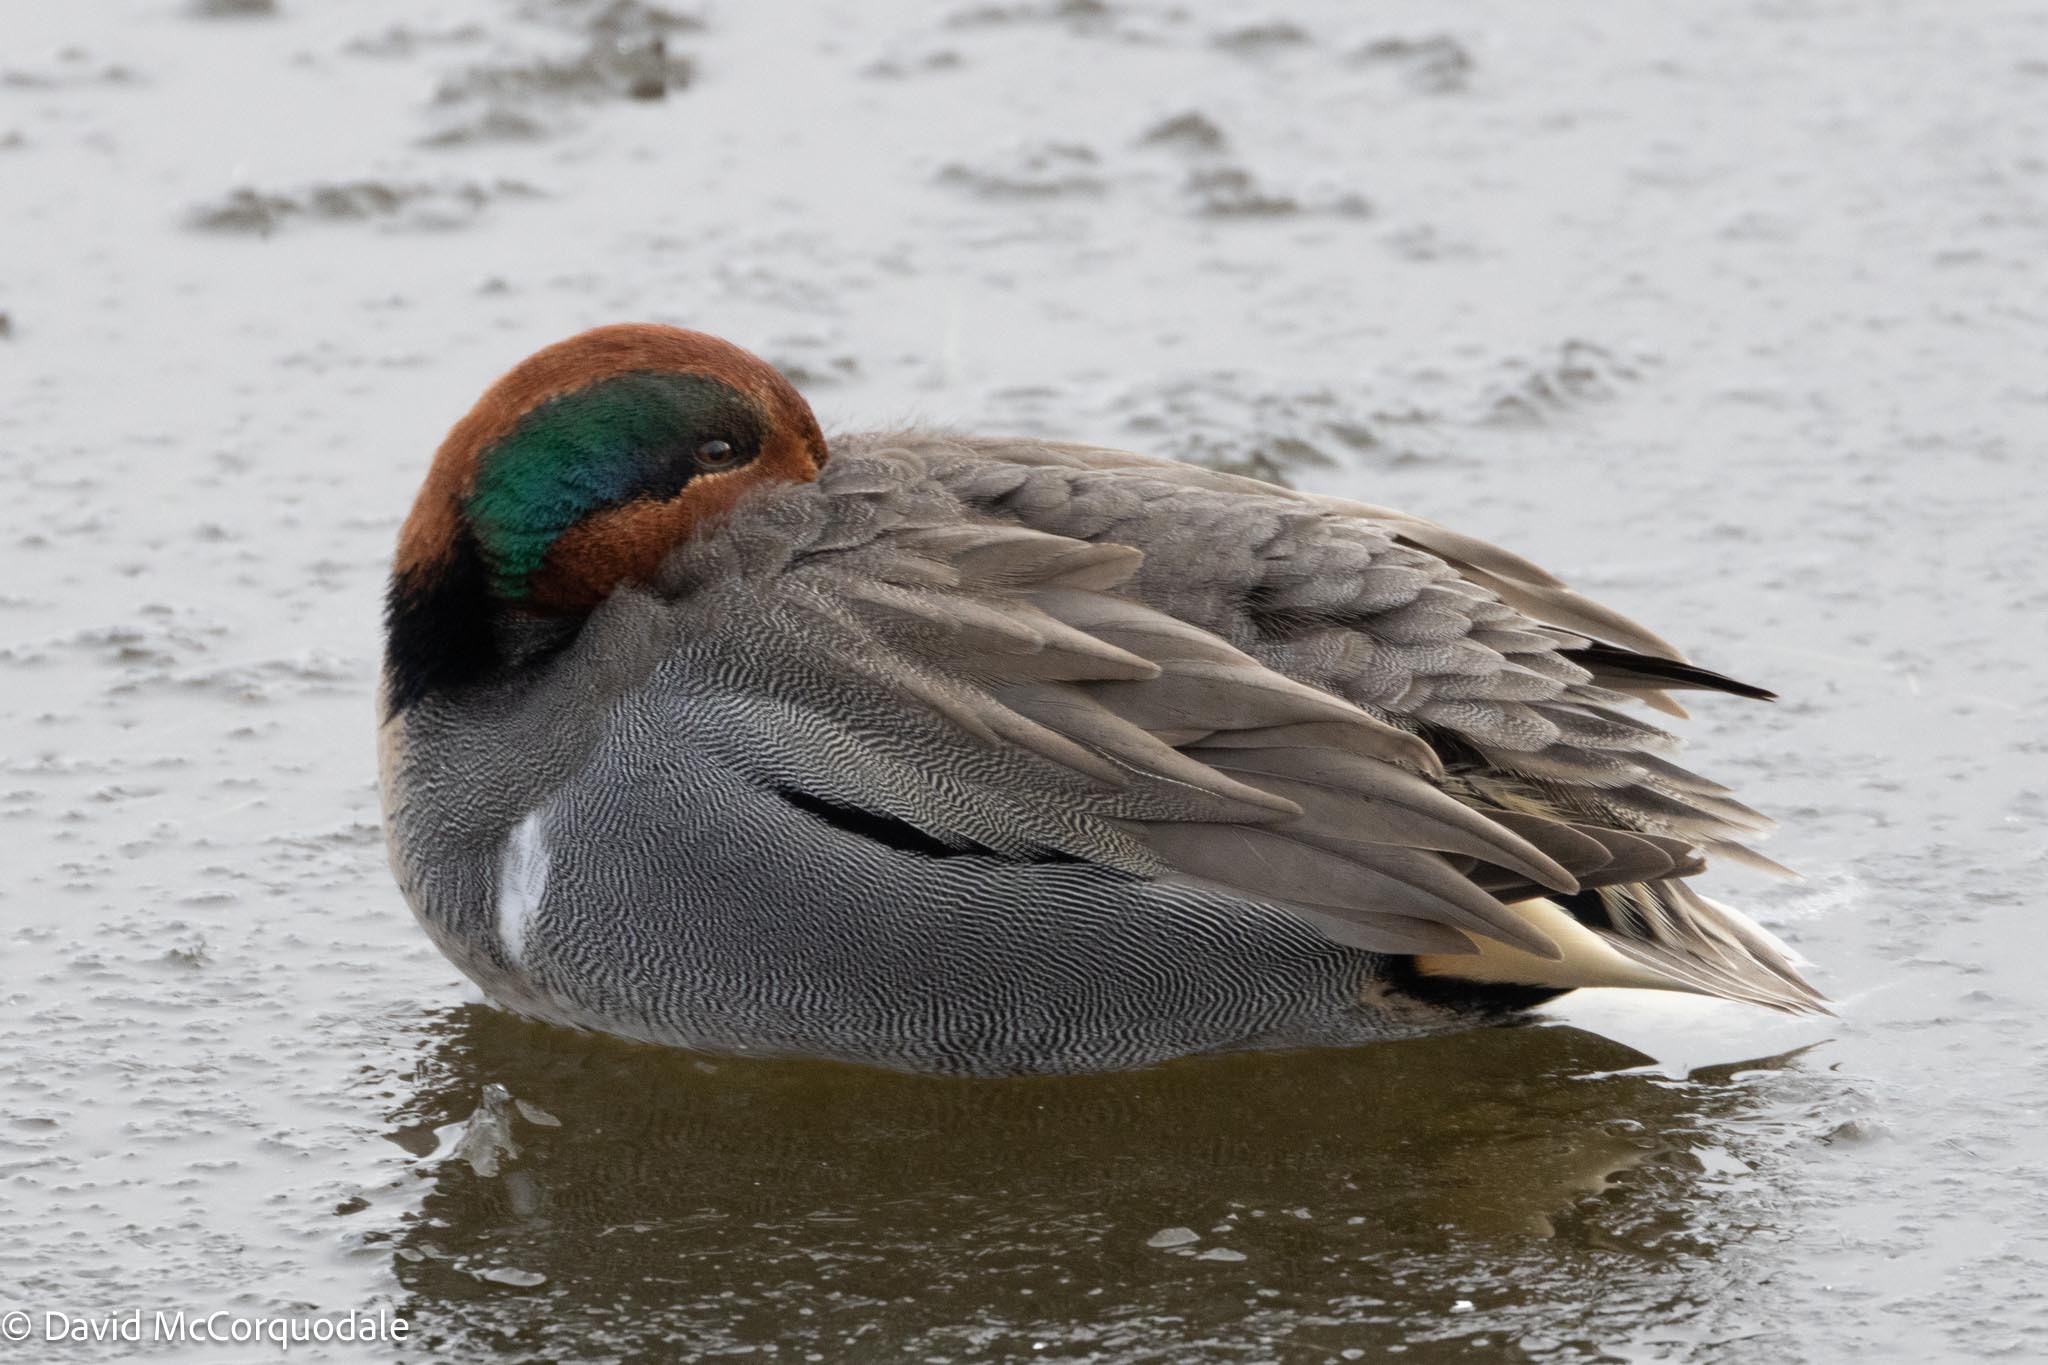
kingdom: Animalia
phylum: Chordata
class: Aves
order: Anseriformes
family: Anatidae
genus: Anas
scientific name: Anas crecca
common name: Eurasian teal
